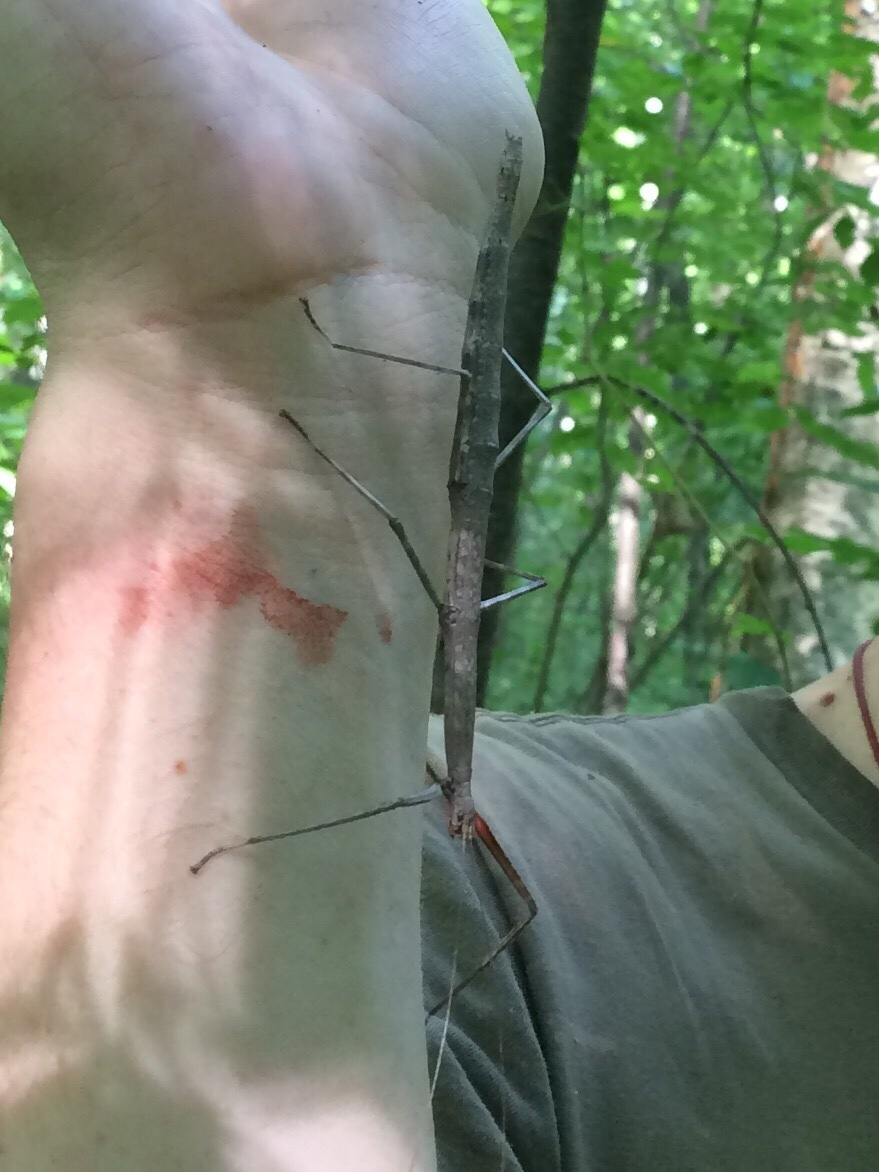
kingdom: Animalia
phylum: Arthropoda
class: Insecta
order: Phasmida
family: Diapheromeridae
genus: Diapheromera
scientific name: Diapheromera femorata
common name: Common american walkingstick
